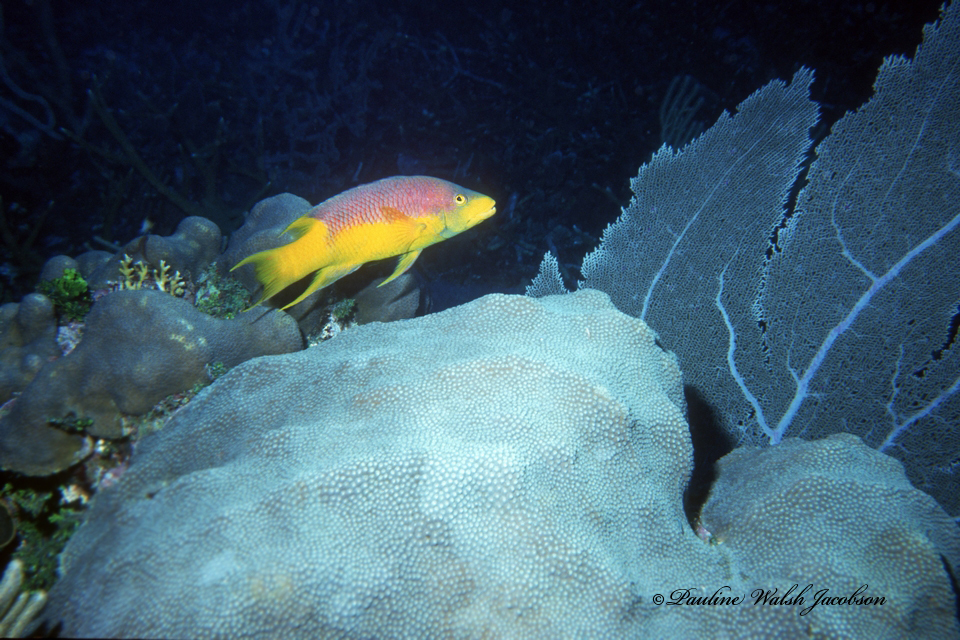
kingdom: Animalia
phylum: Chordata
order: Perciformes
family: Labridae
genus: Bodianus
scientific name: Bodianus rufus
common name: Spanish hogfish
